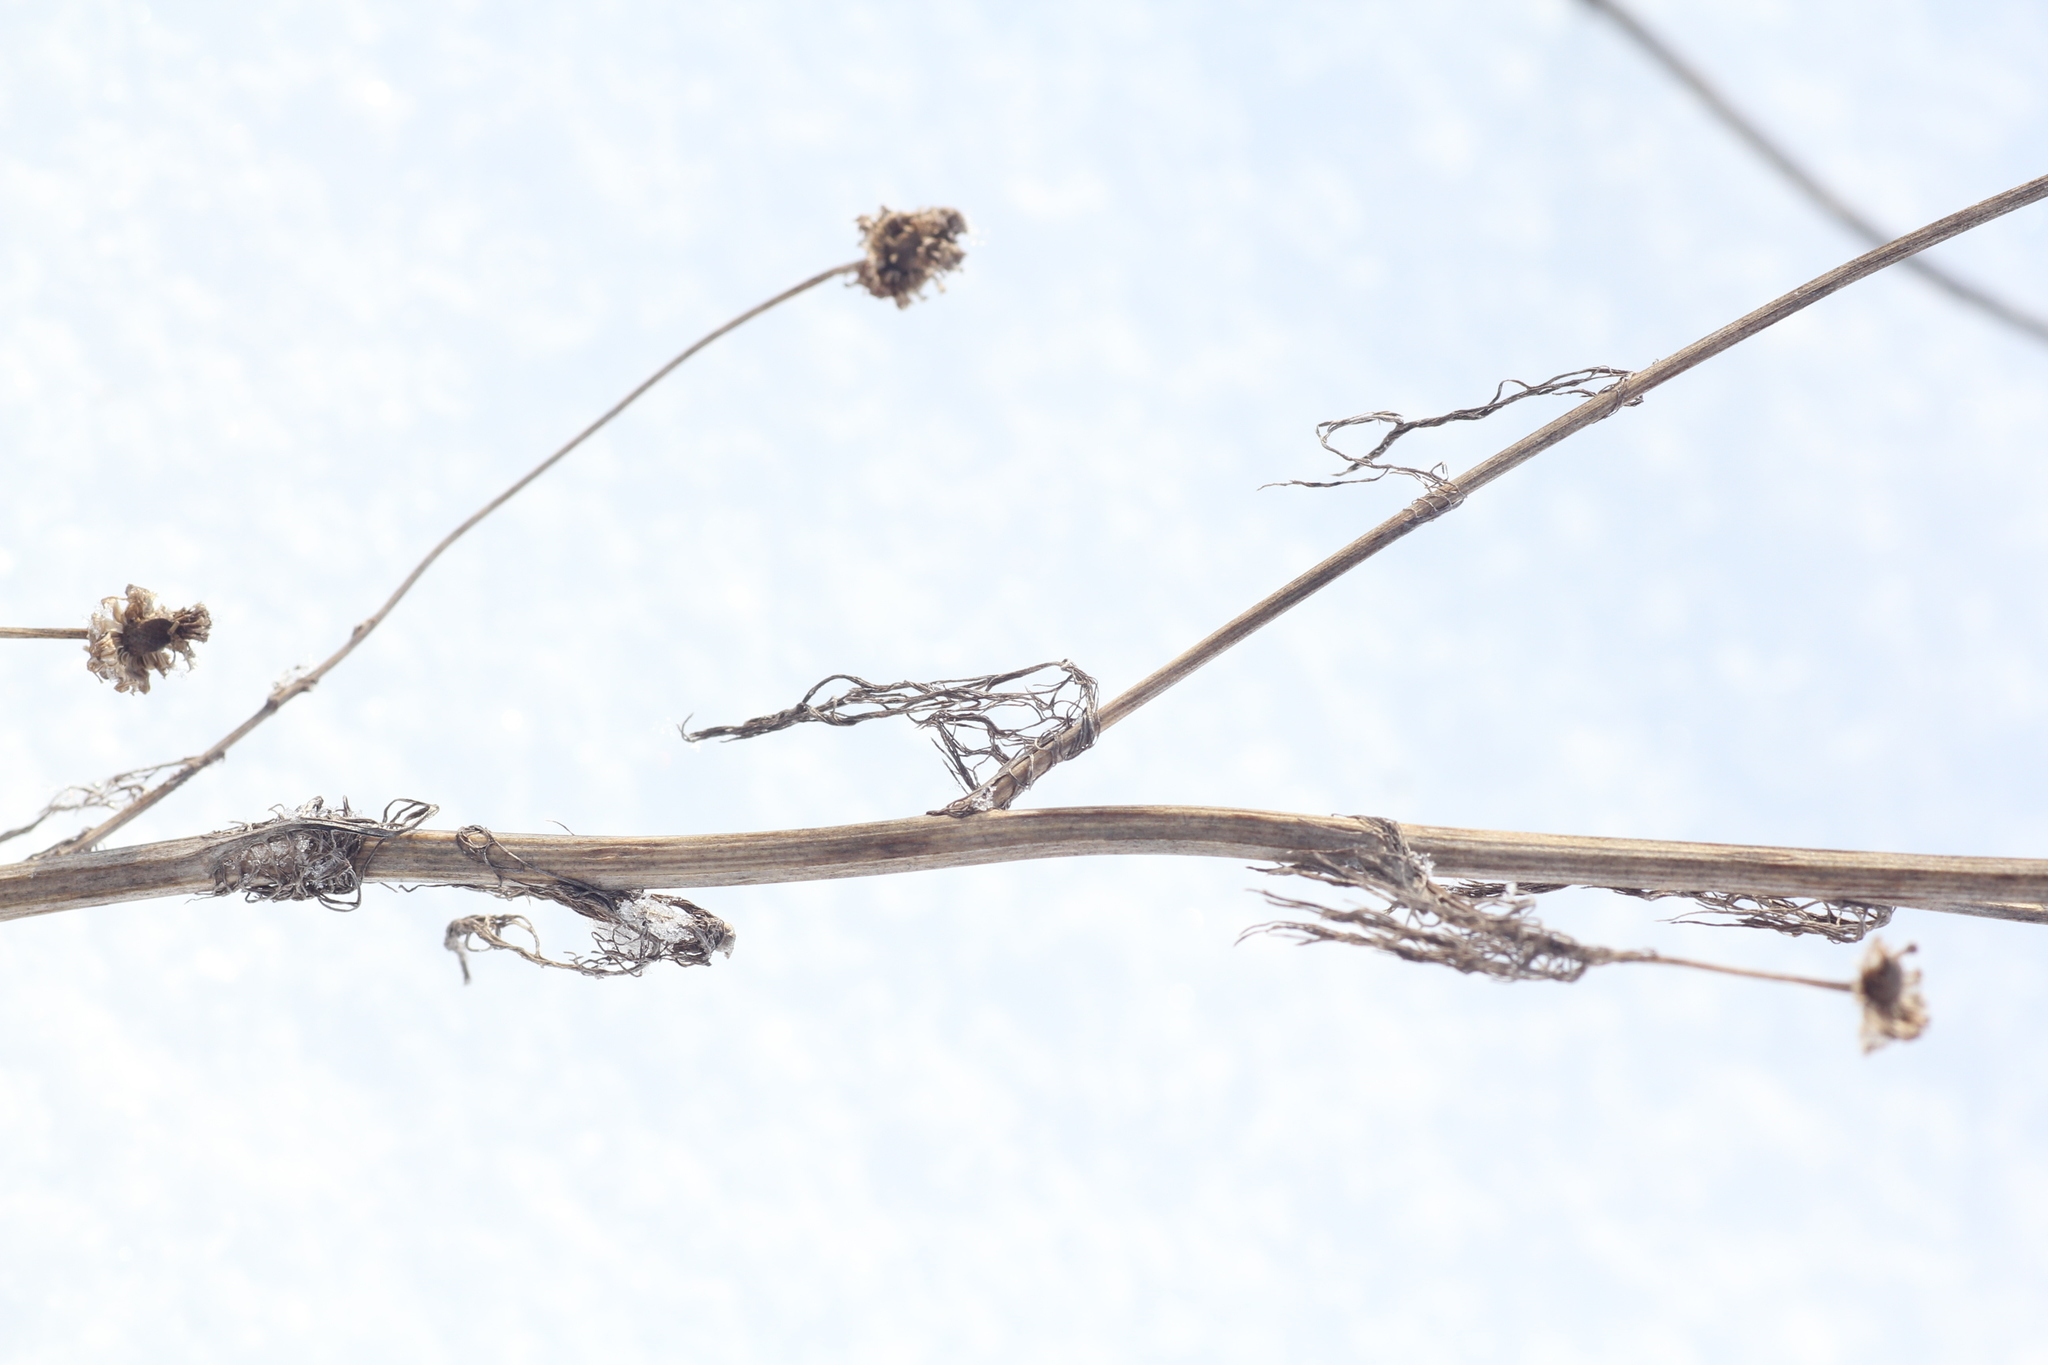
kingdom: Plantae
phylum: Tracheophyta
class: Magnoliopsida
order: Asterales
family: Asteraceae
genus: Tripleurospermum
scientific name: Tripleurospermum inodorum
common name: Scentless mayweed
